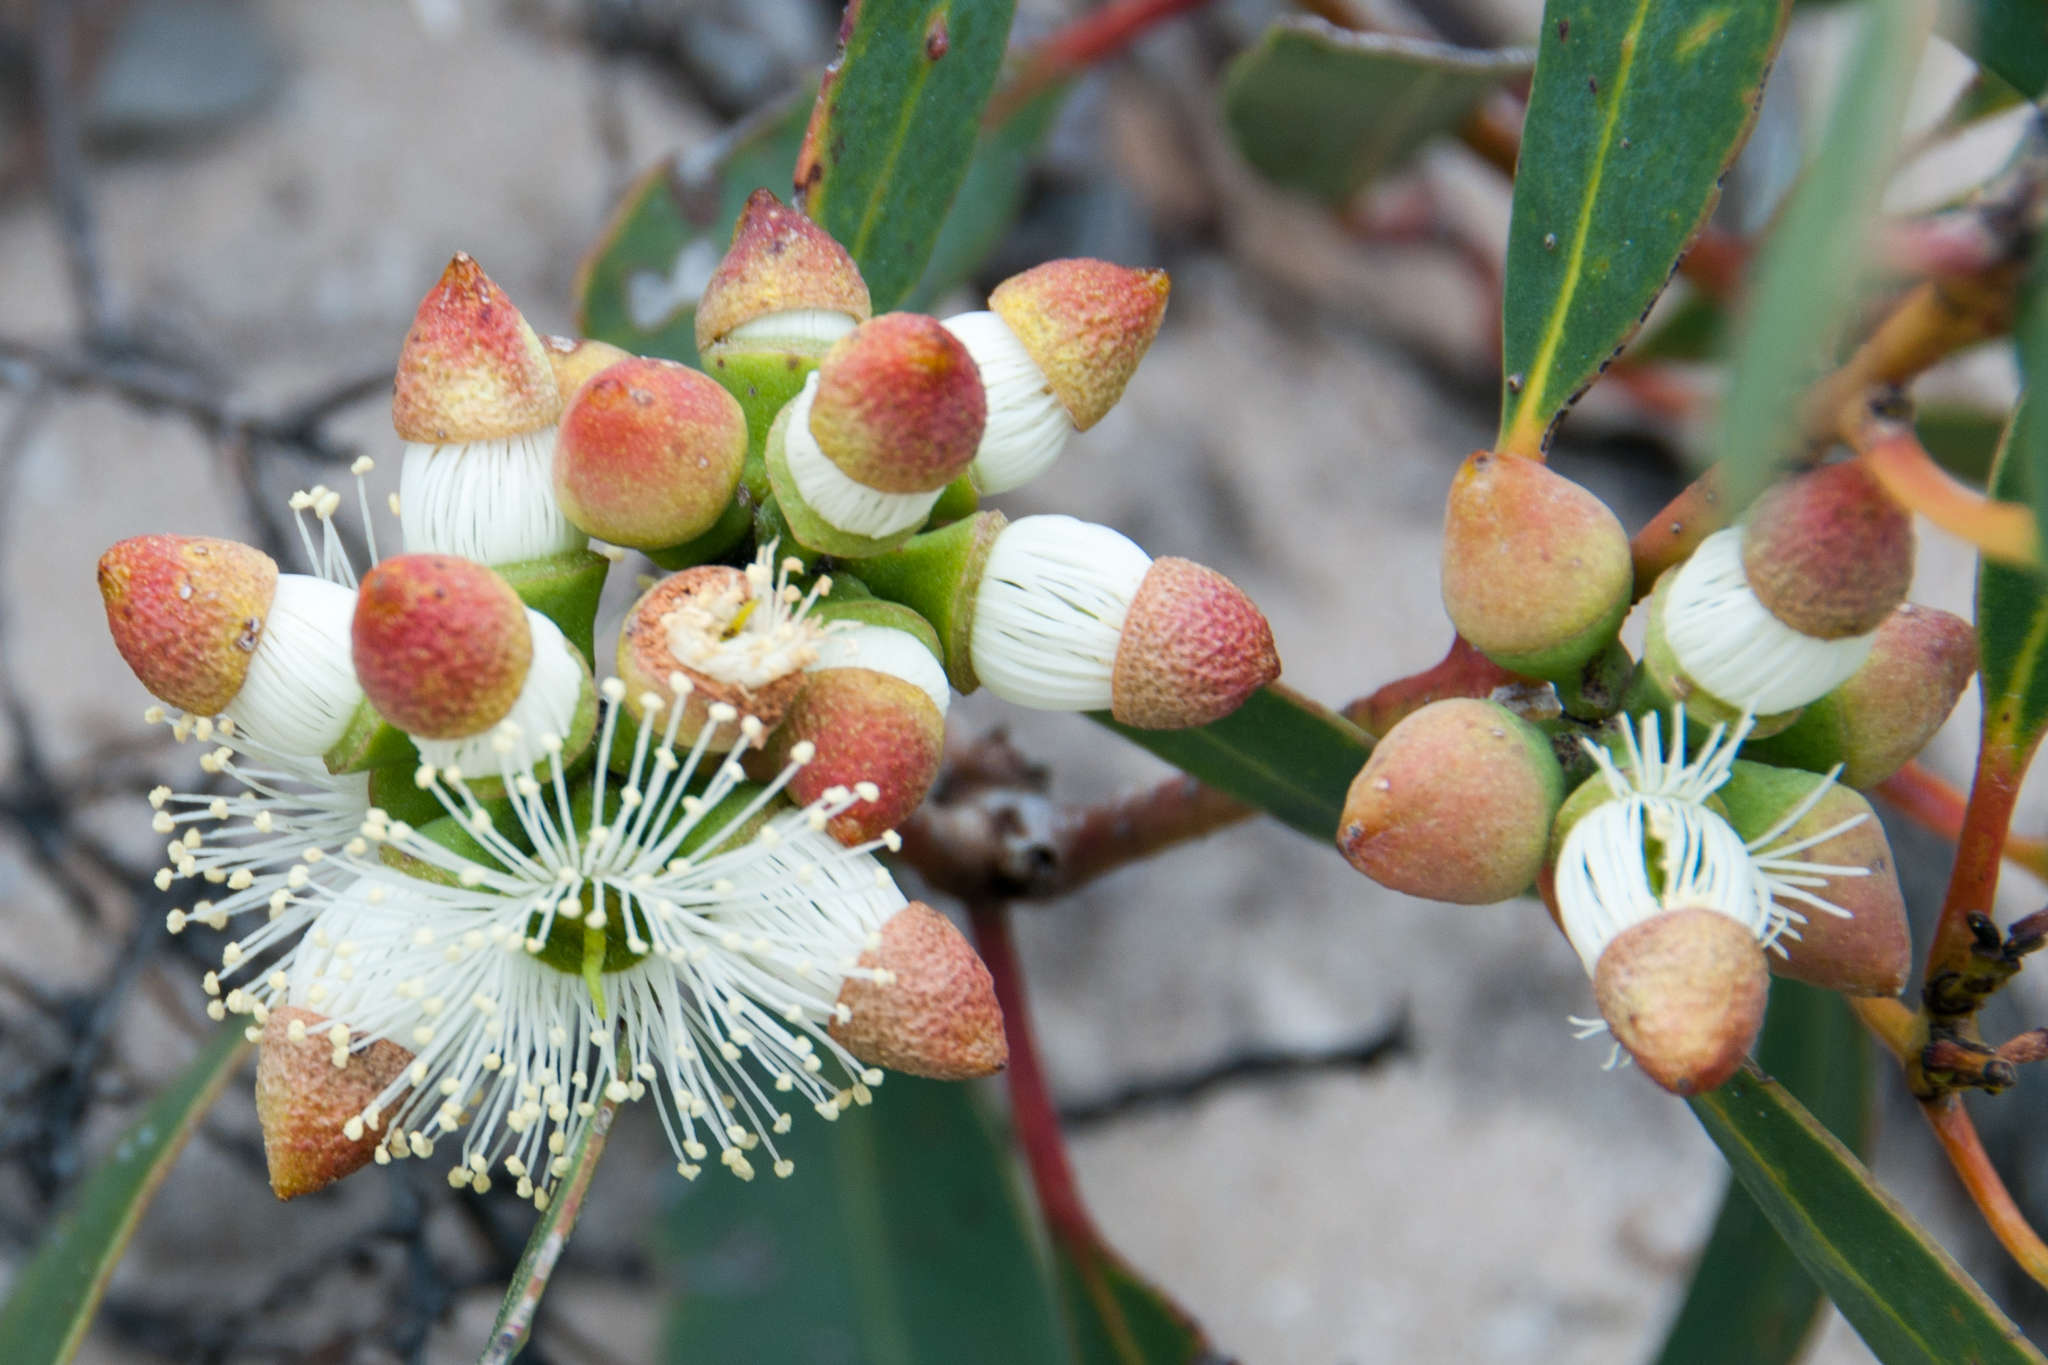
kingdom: Plantae
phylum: Tracheophyta
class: Magnoliopsida
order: Myrtales
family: Myrtaceae
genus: Eucalyptus
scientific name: Eucalyptus diversifolia
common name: Coastal white mallee
